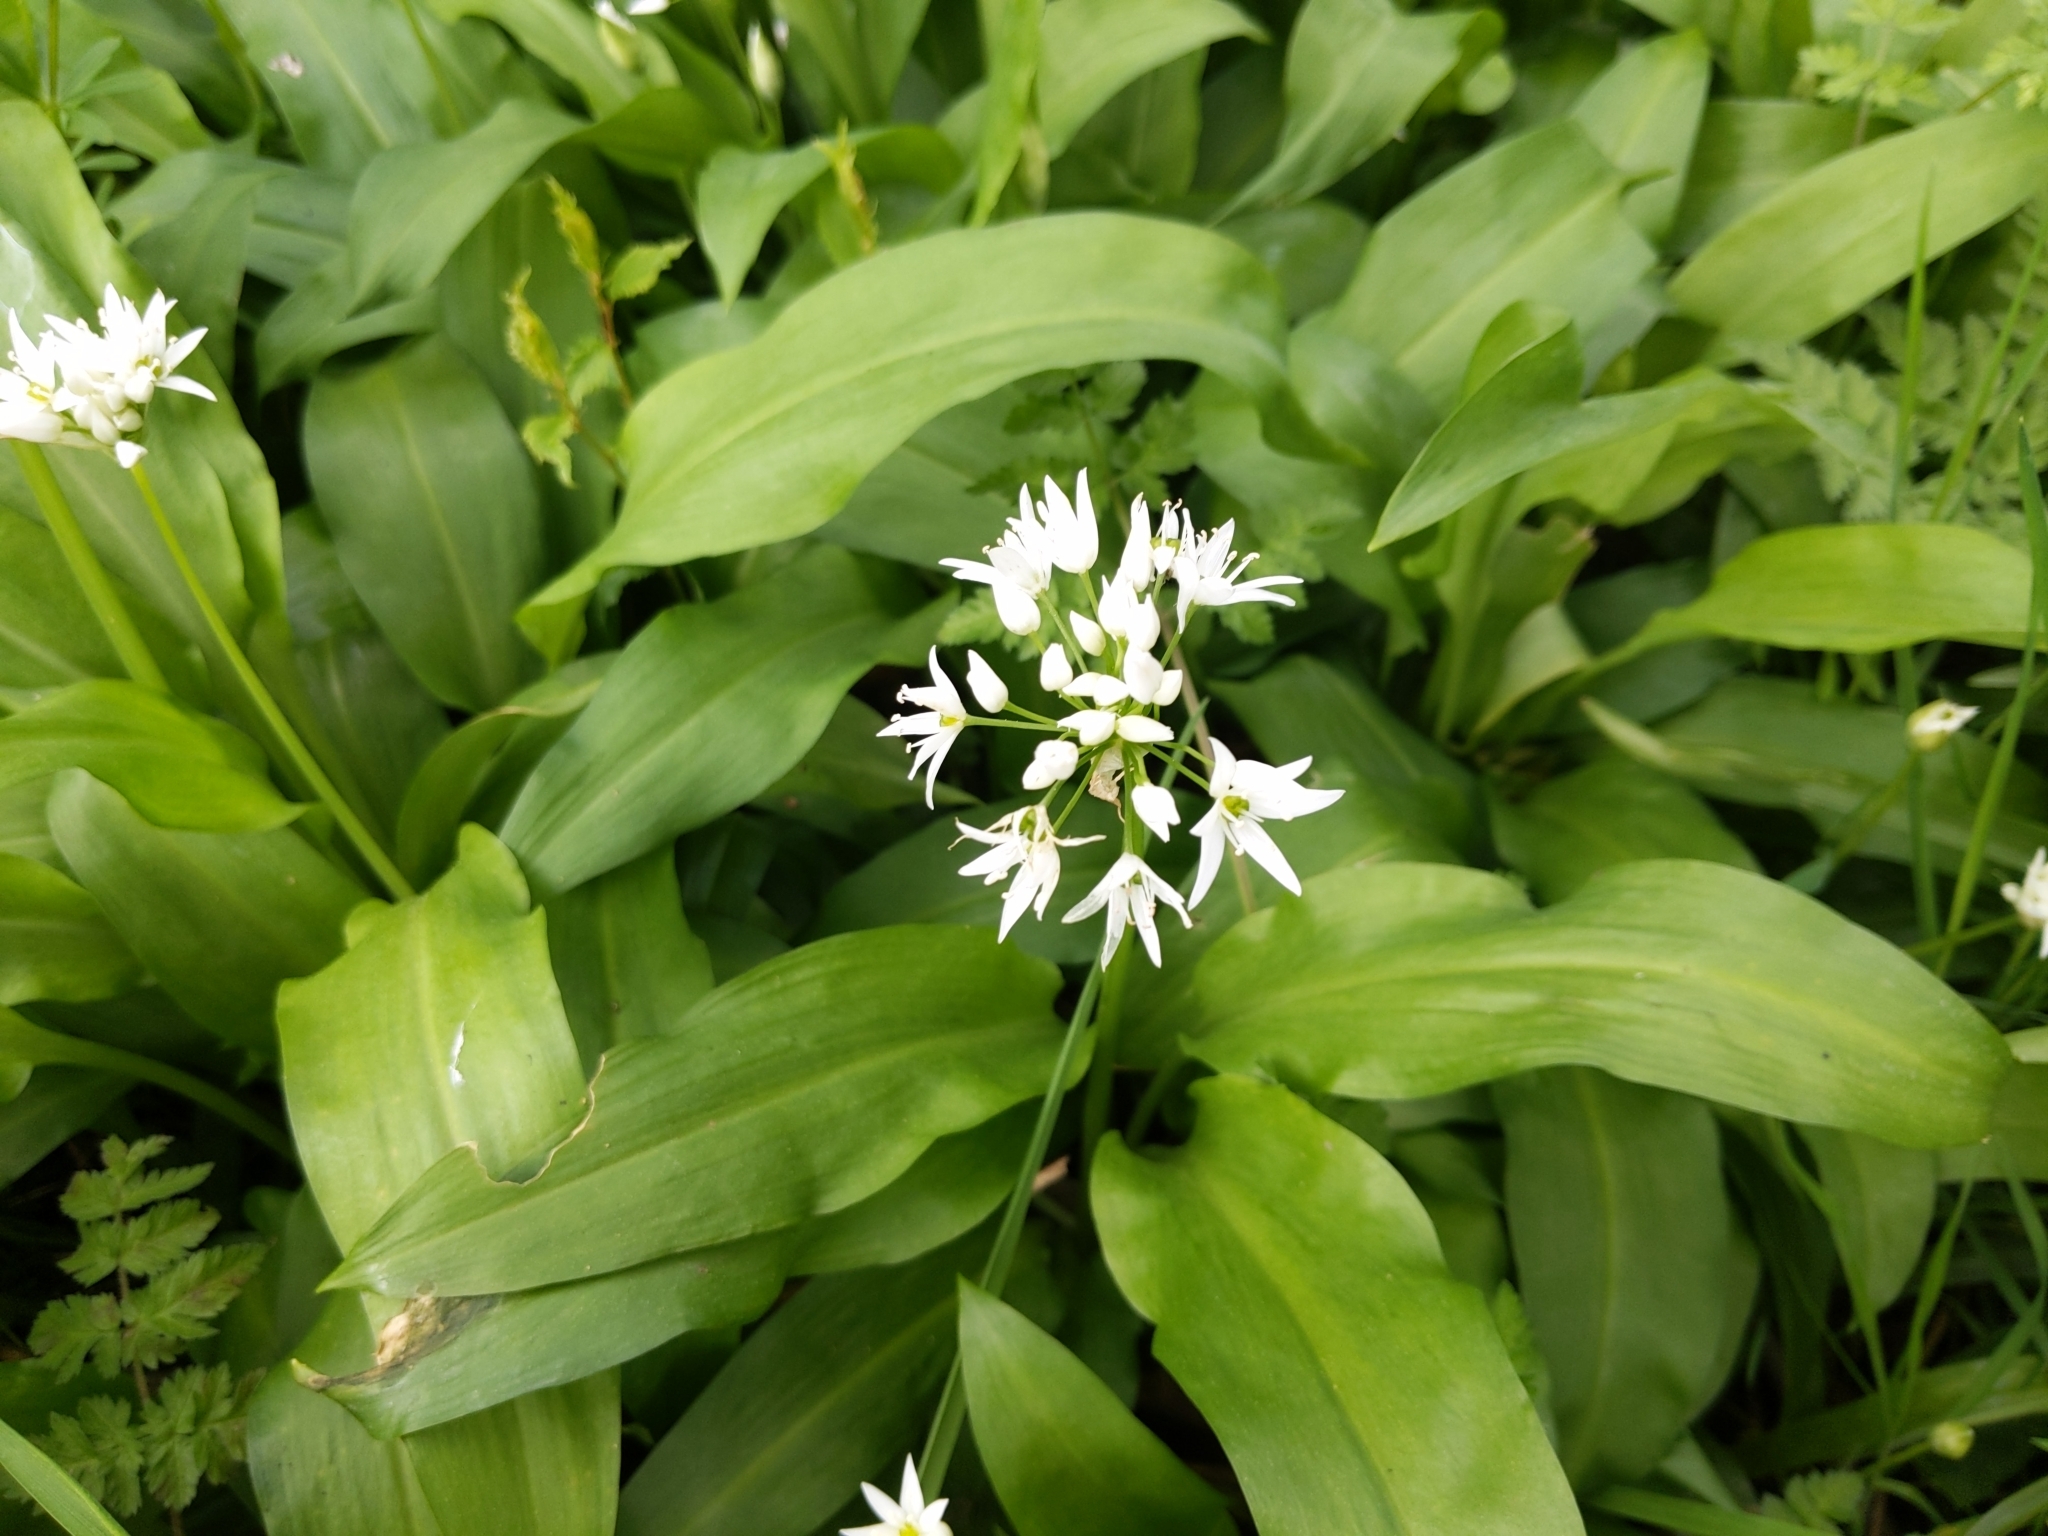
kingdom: Plantae
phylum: Tracheophyta
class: Liliopsida
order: Asparagales
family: Amaryllidaceae
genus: Allium
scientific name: Allium ursinum
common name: Ramsons
